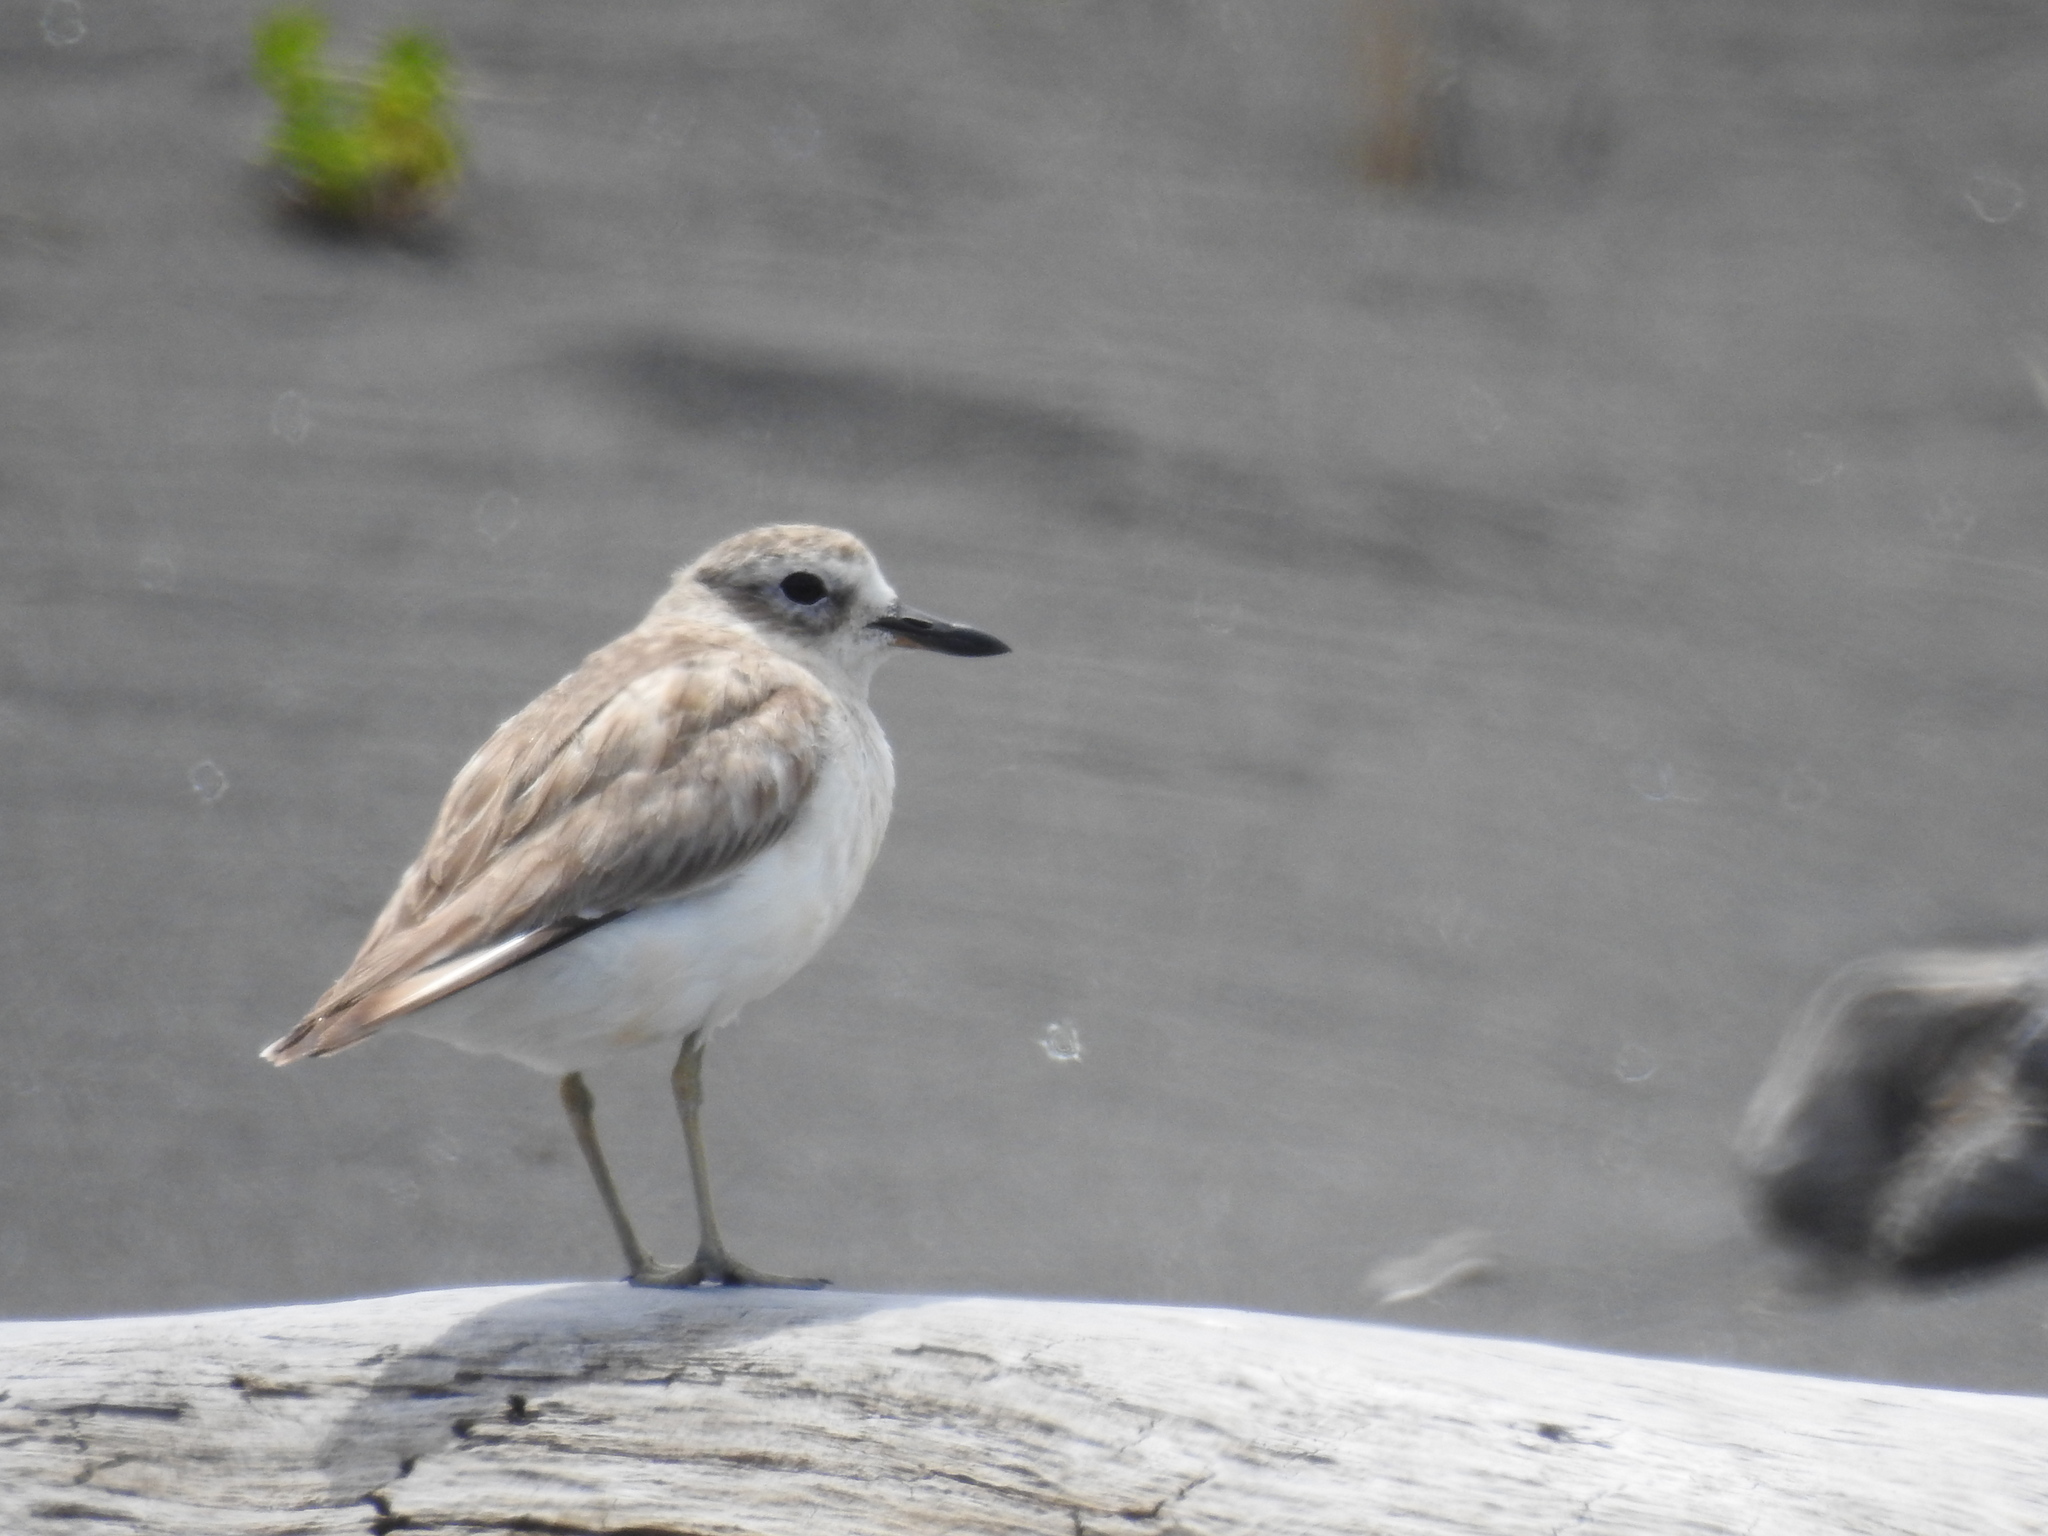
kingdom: Animalia
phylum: Chordata
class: Aves
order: Charadriiformes
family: Charadriidae
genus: Anarhynchus
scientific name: Anarhynchus
